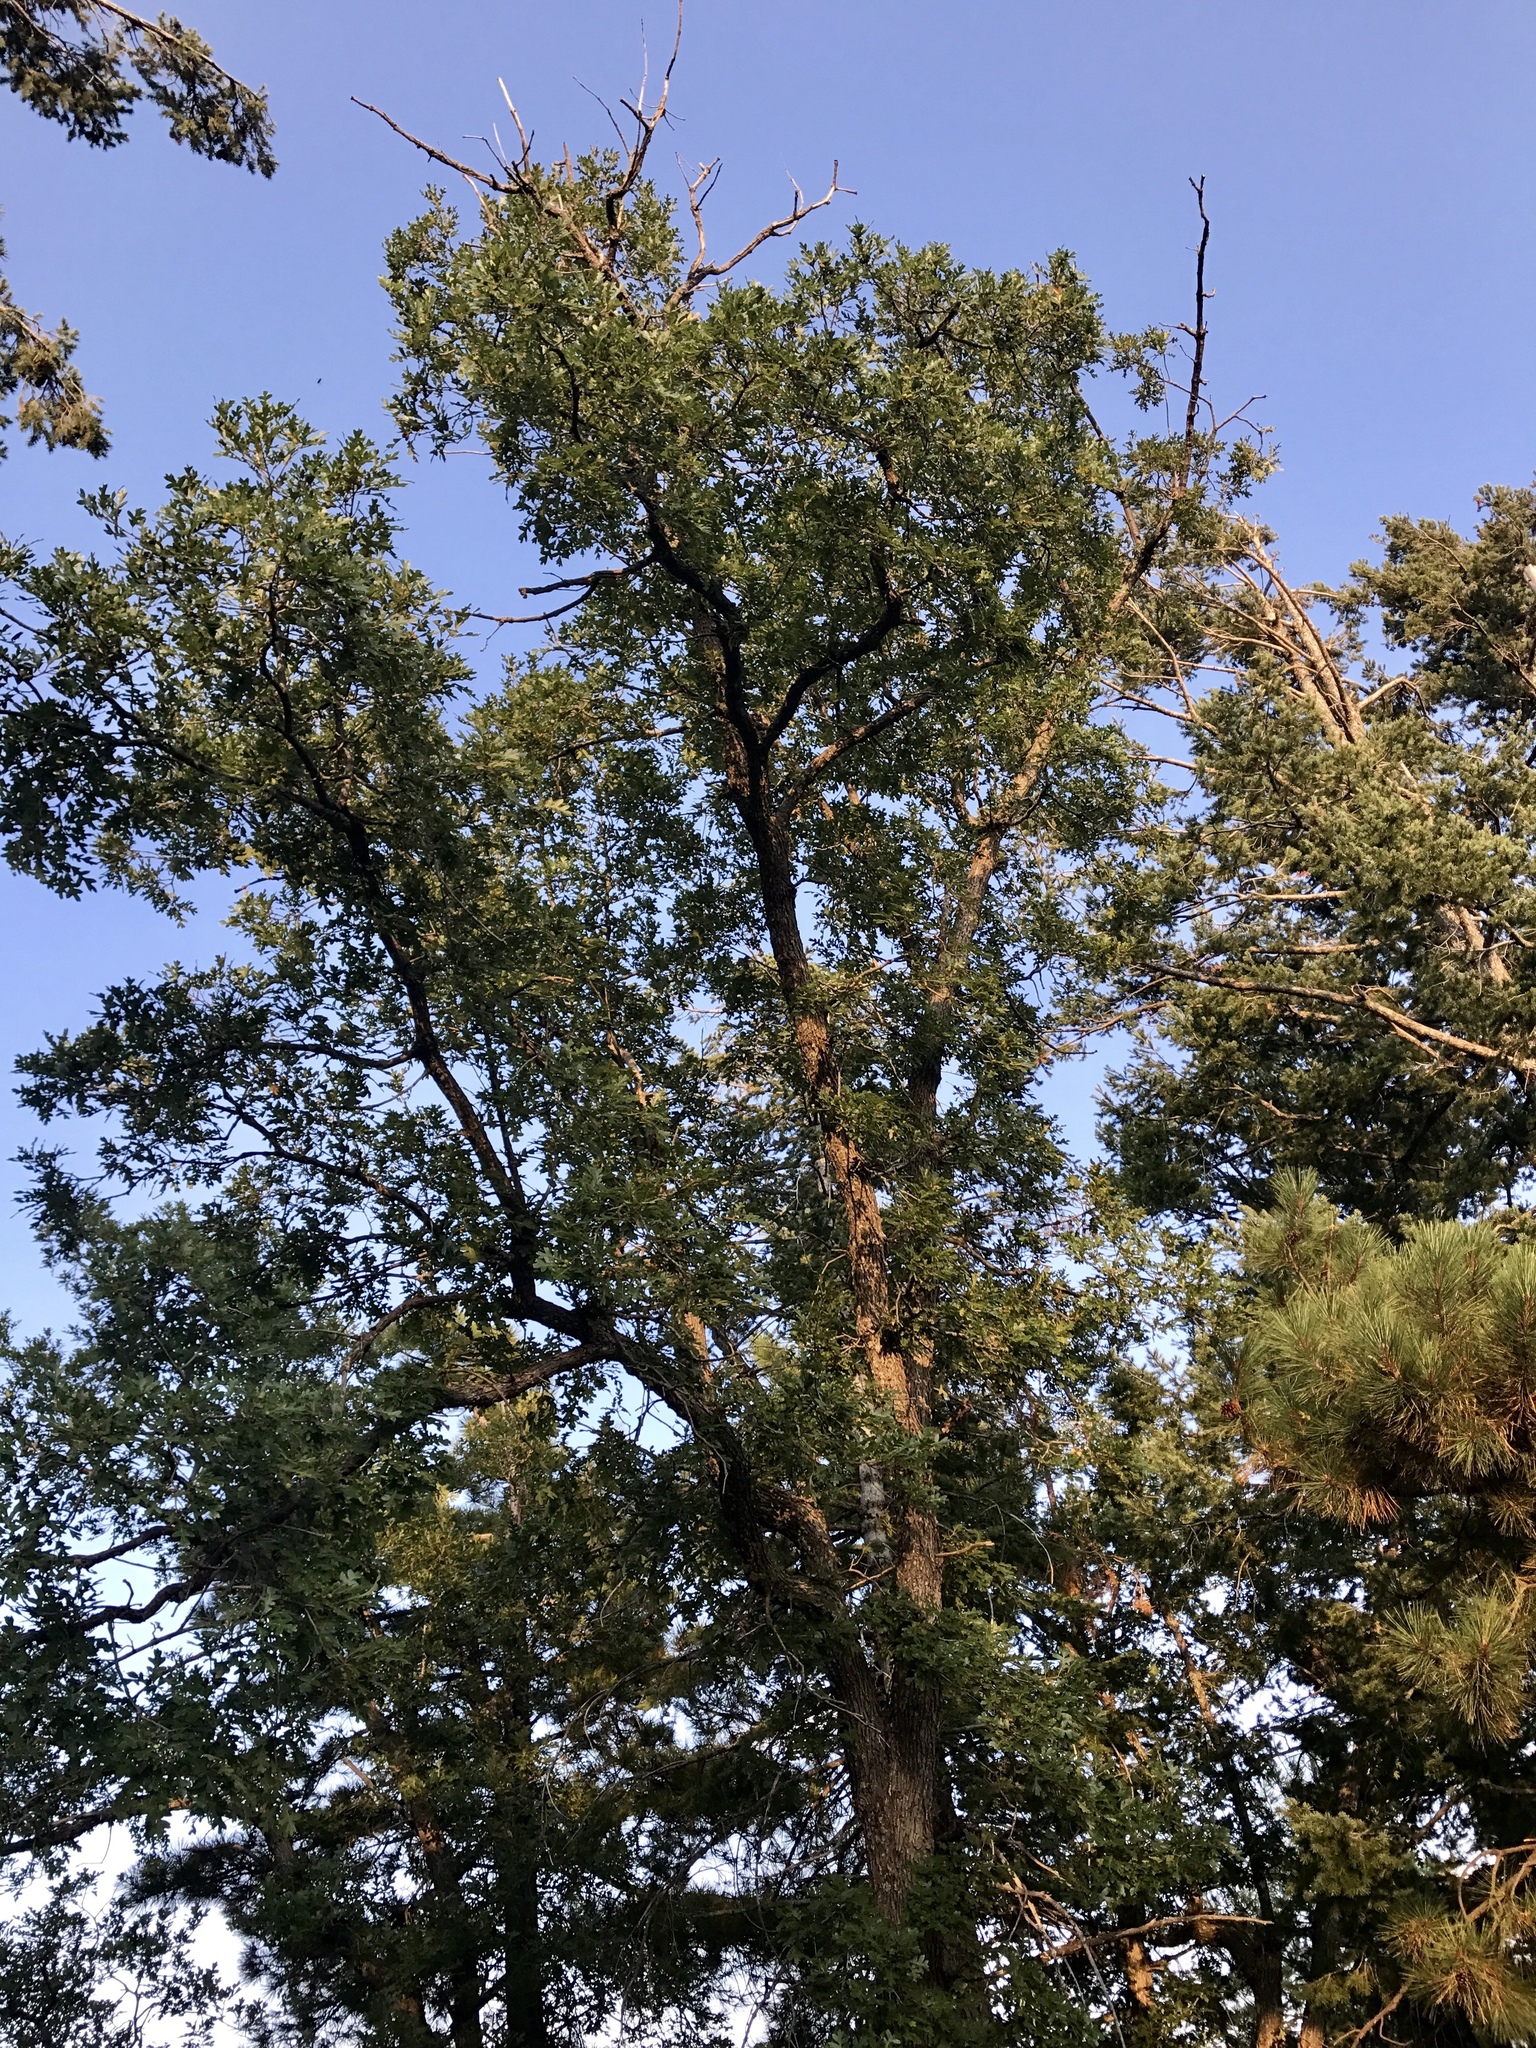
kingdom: Plantae
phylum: Tracheophyta
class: Magnoliopsida
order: Fagales
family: Fagaceae
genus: Quercus
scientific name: Quercus gambelii
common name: Gambel oak
